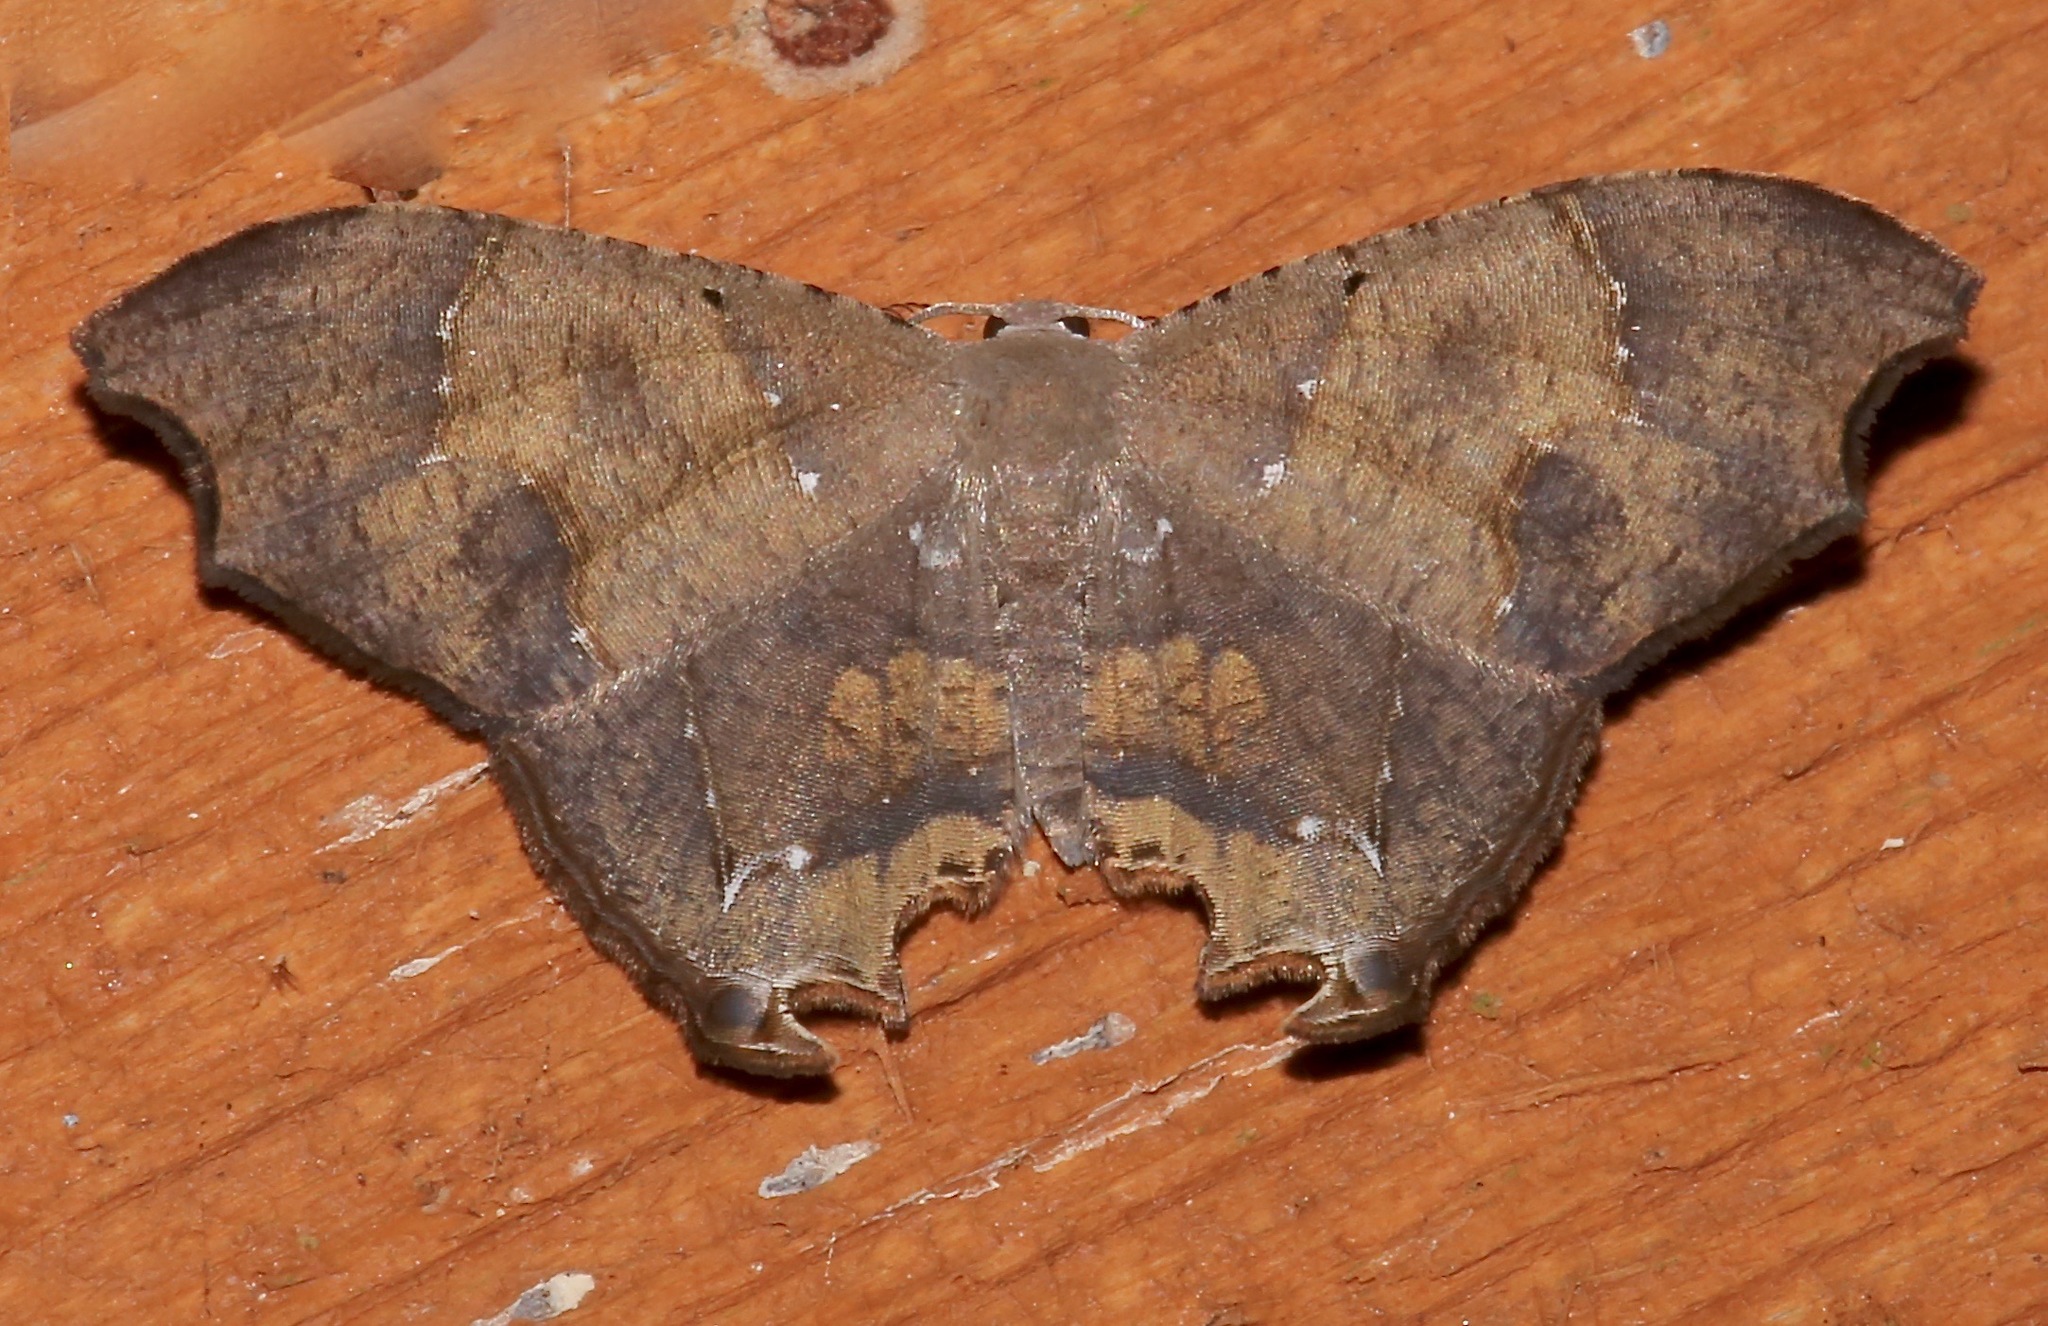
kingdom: Animalia
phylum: Arthropoda
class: Insecta
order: Lepidoptera
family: Uraniidae
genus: Trotorhombia
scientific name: Trotorhombia metachromata
